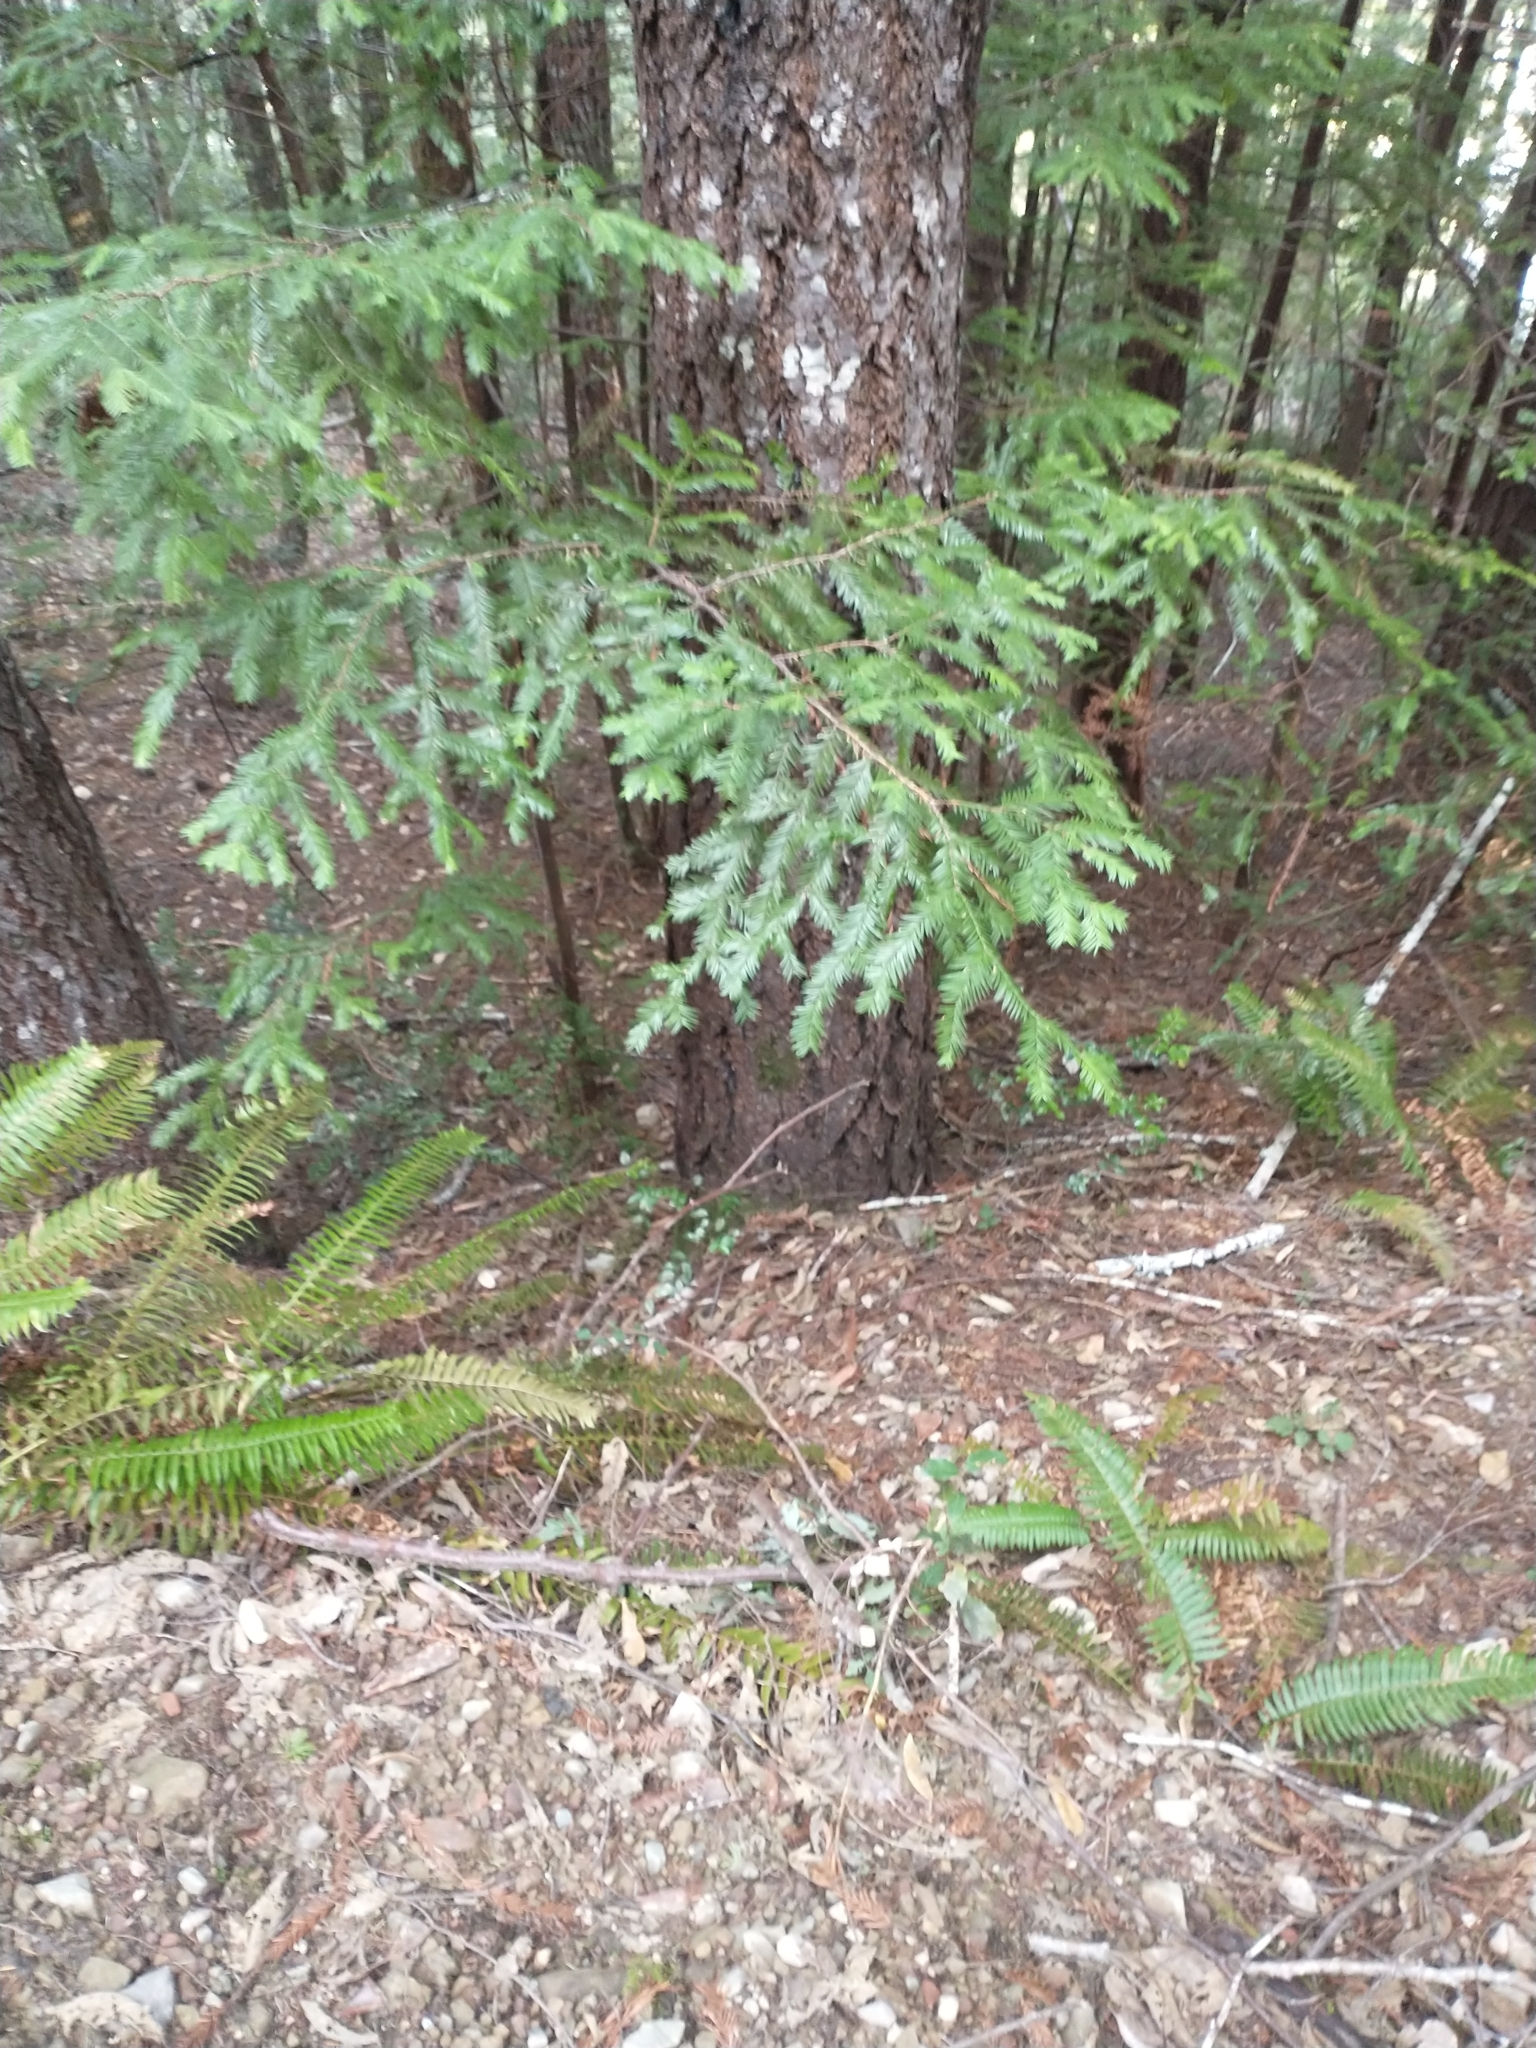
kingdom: Plantae
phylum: Tracheophyta
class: Pinopsida
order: Pinales
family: Cupressaceae
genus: Sequoia
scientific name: Sequoia sempervirens
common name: Coast redwood
